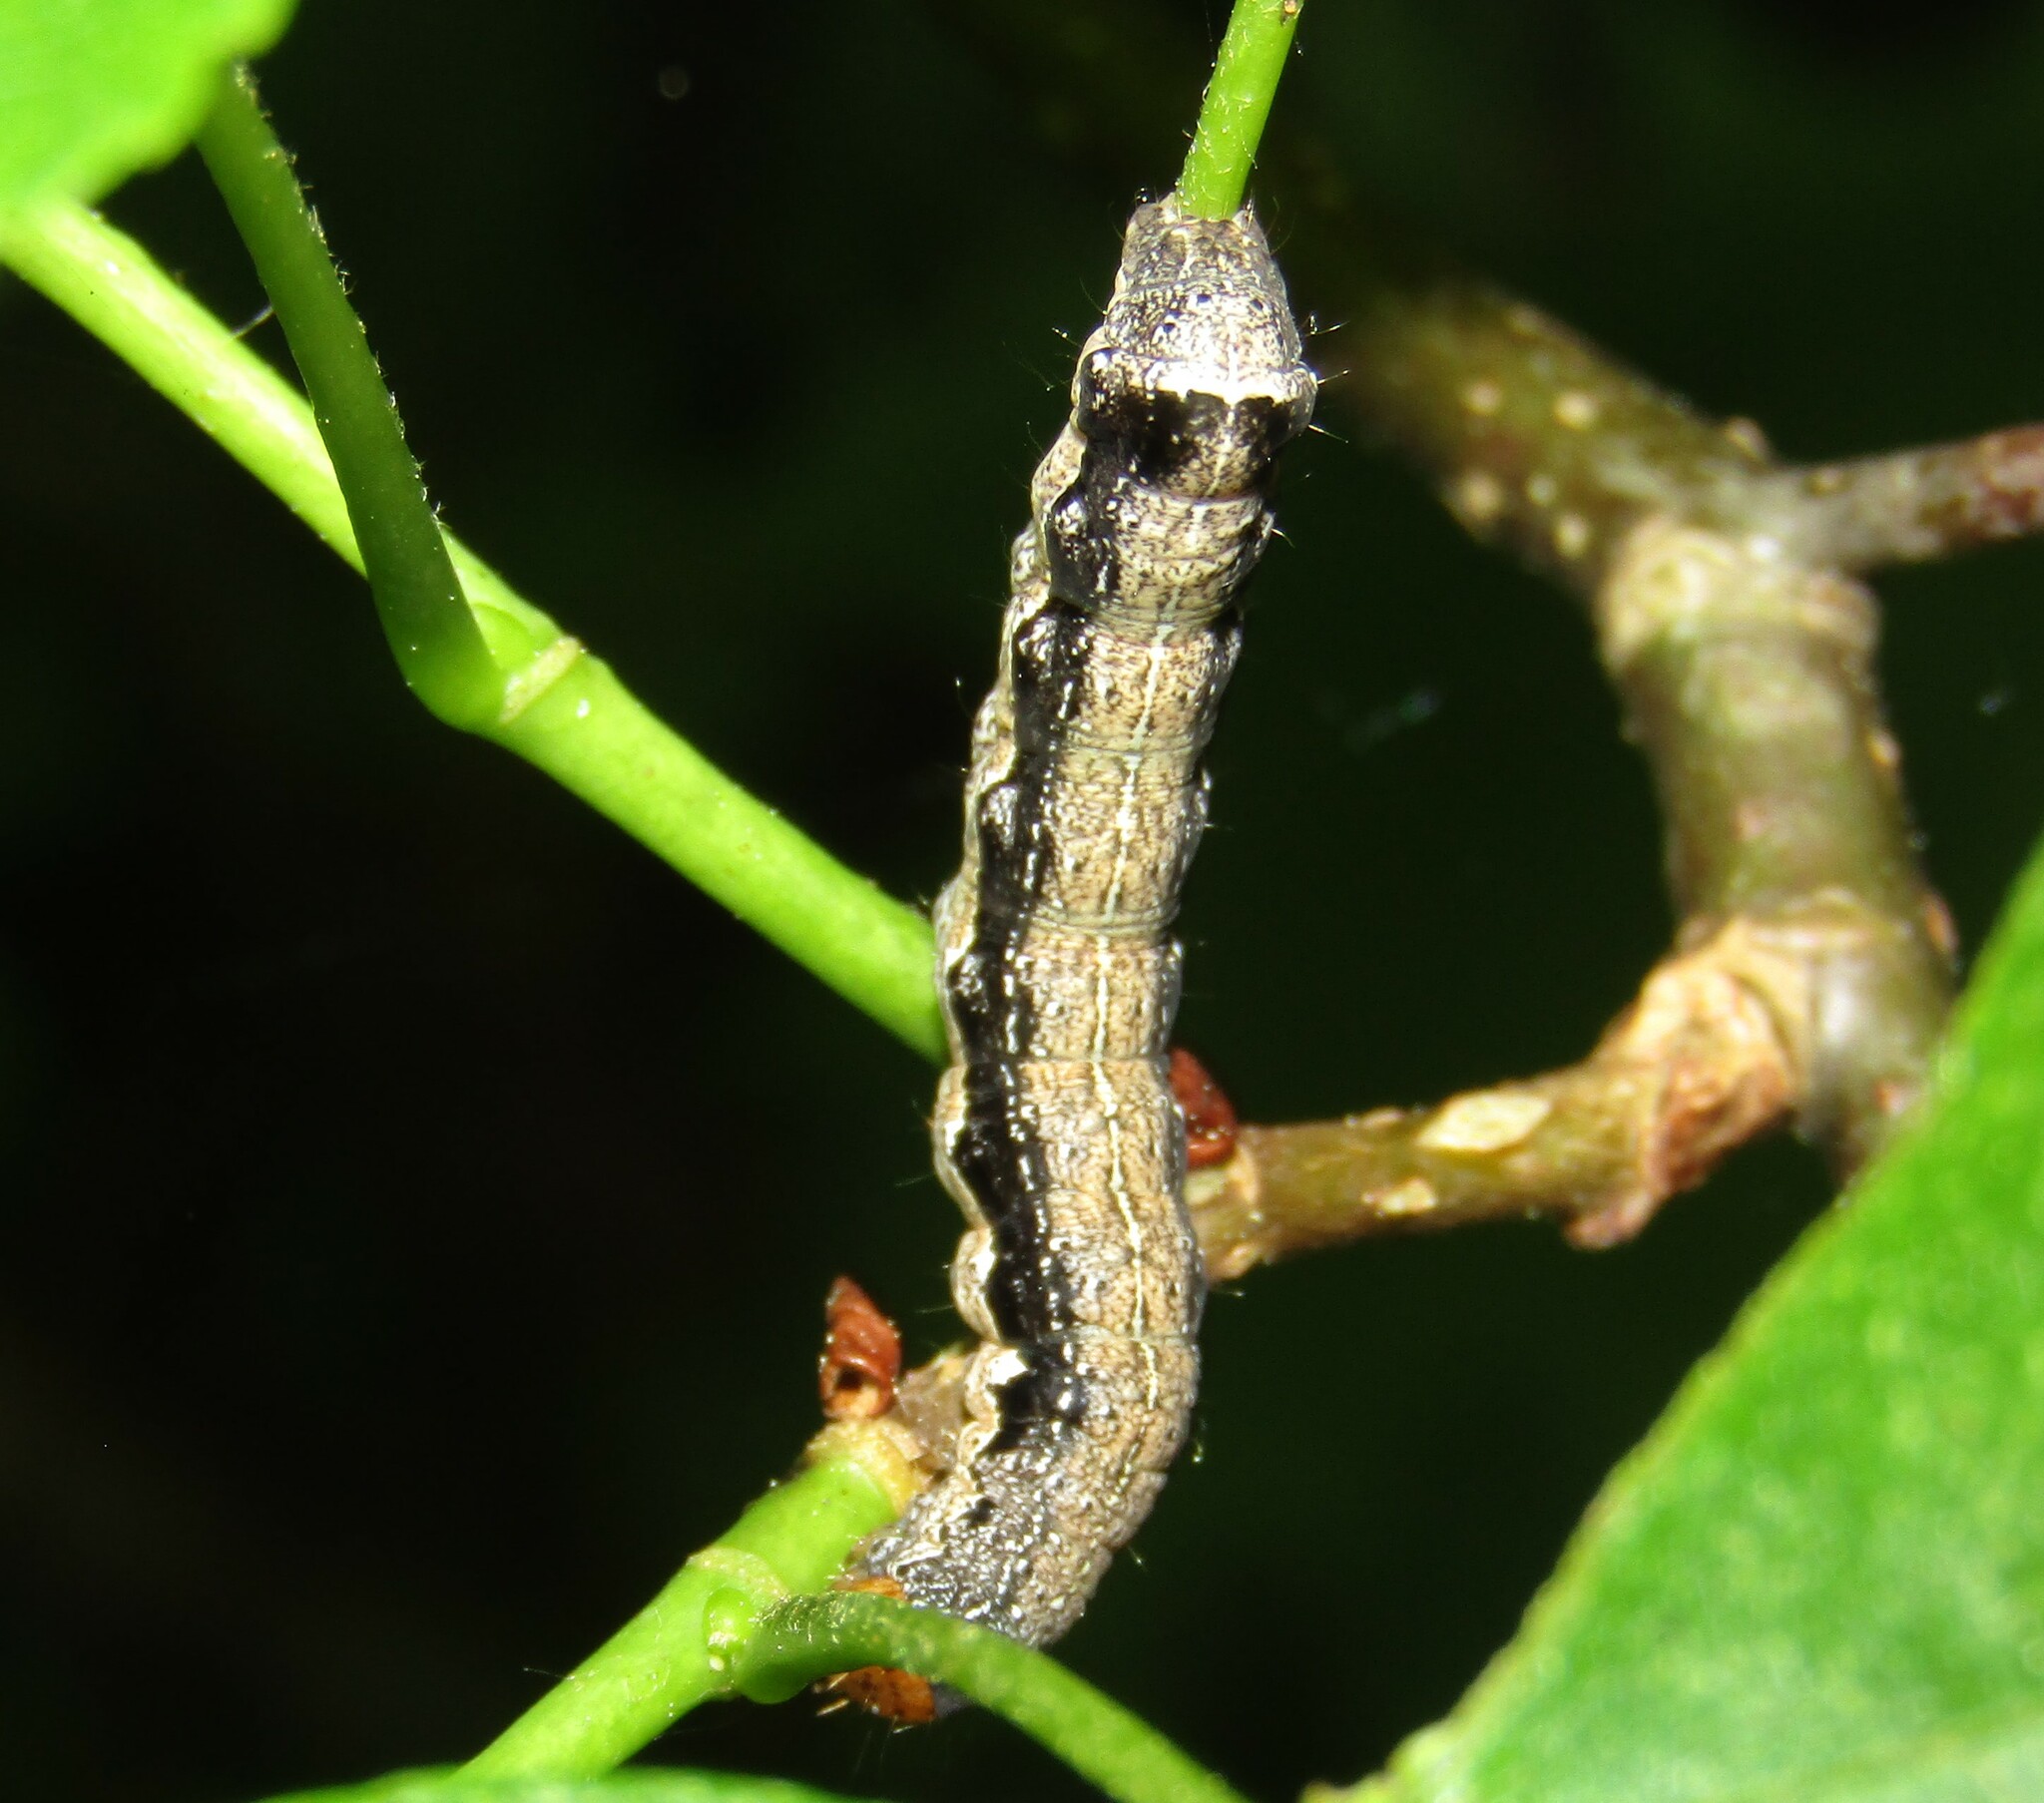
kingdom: Animalia
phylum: Arthropoda
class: Insecta
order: Lepidoptera
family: Noctuidae
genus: Anorthoa
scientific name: Anorthoa munda
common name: Twin-spotted quaker
